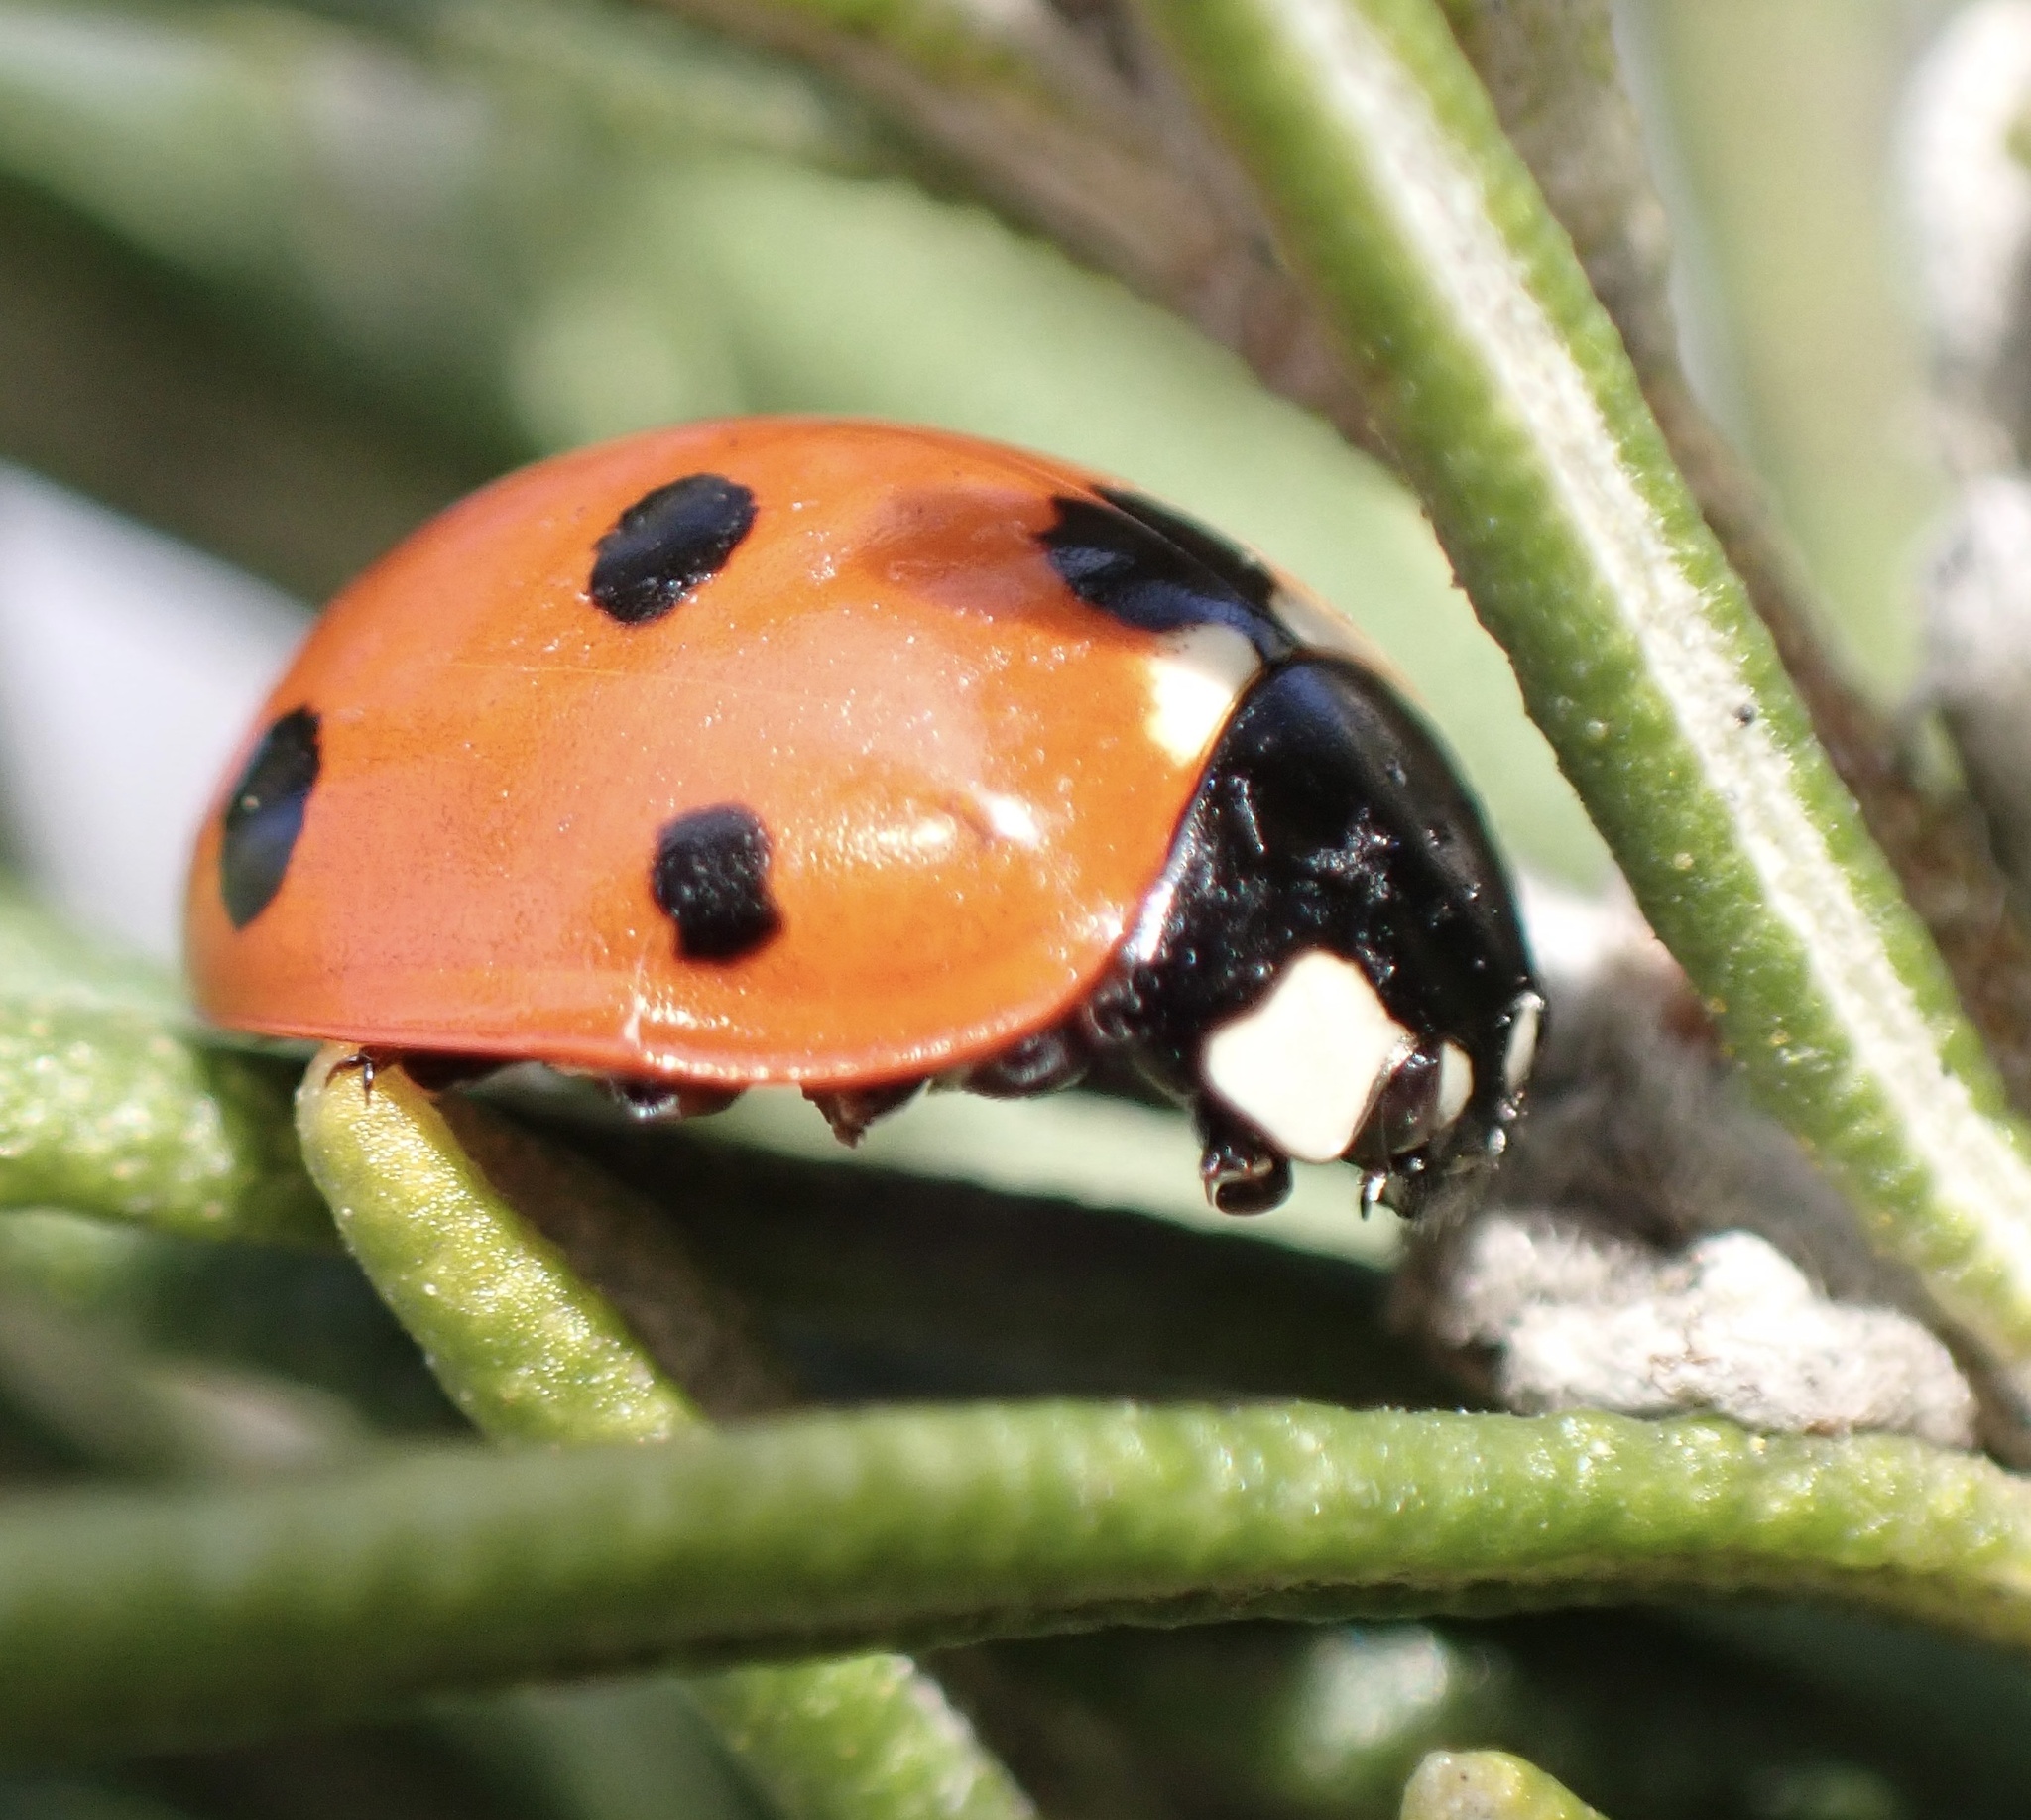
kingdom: Animalia
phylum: Arthropoda
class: Insecta
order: Coleoptera
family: Coccinellidae
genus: Coccinella
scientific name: Coccinella septempunctata
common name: Sevenspotted lady beetle
